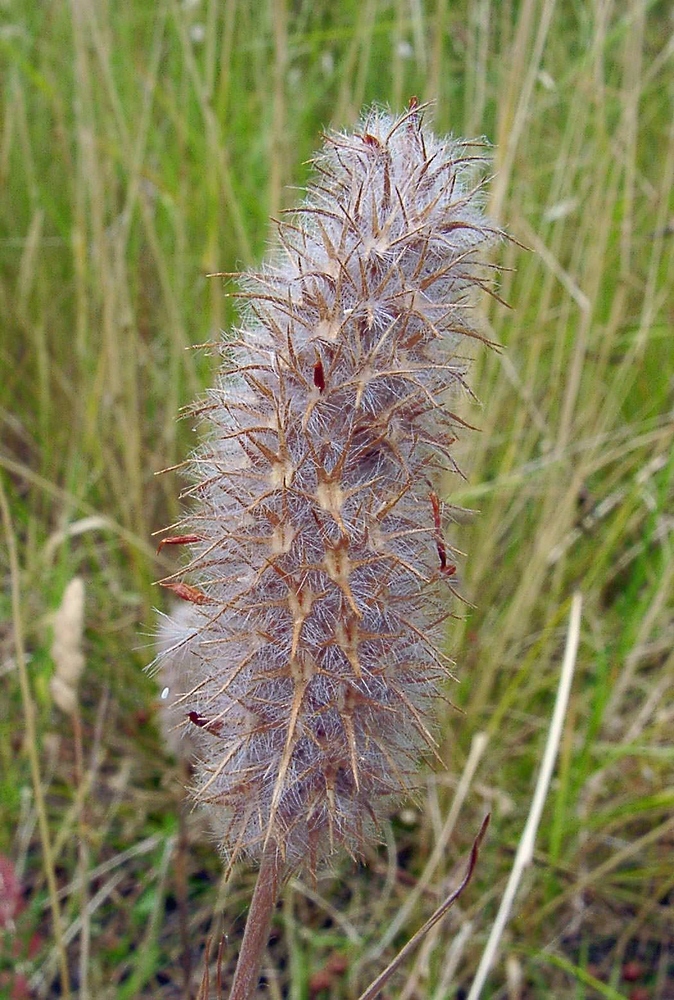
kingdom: Plantae
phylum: Tracheophyta
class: Magnoliopsida
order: Fabales
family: Fabaceae
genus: Trifolium
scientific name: Trifolium angustifolium
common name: Narrow clover
